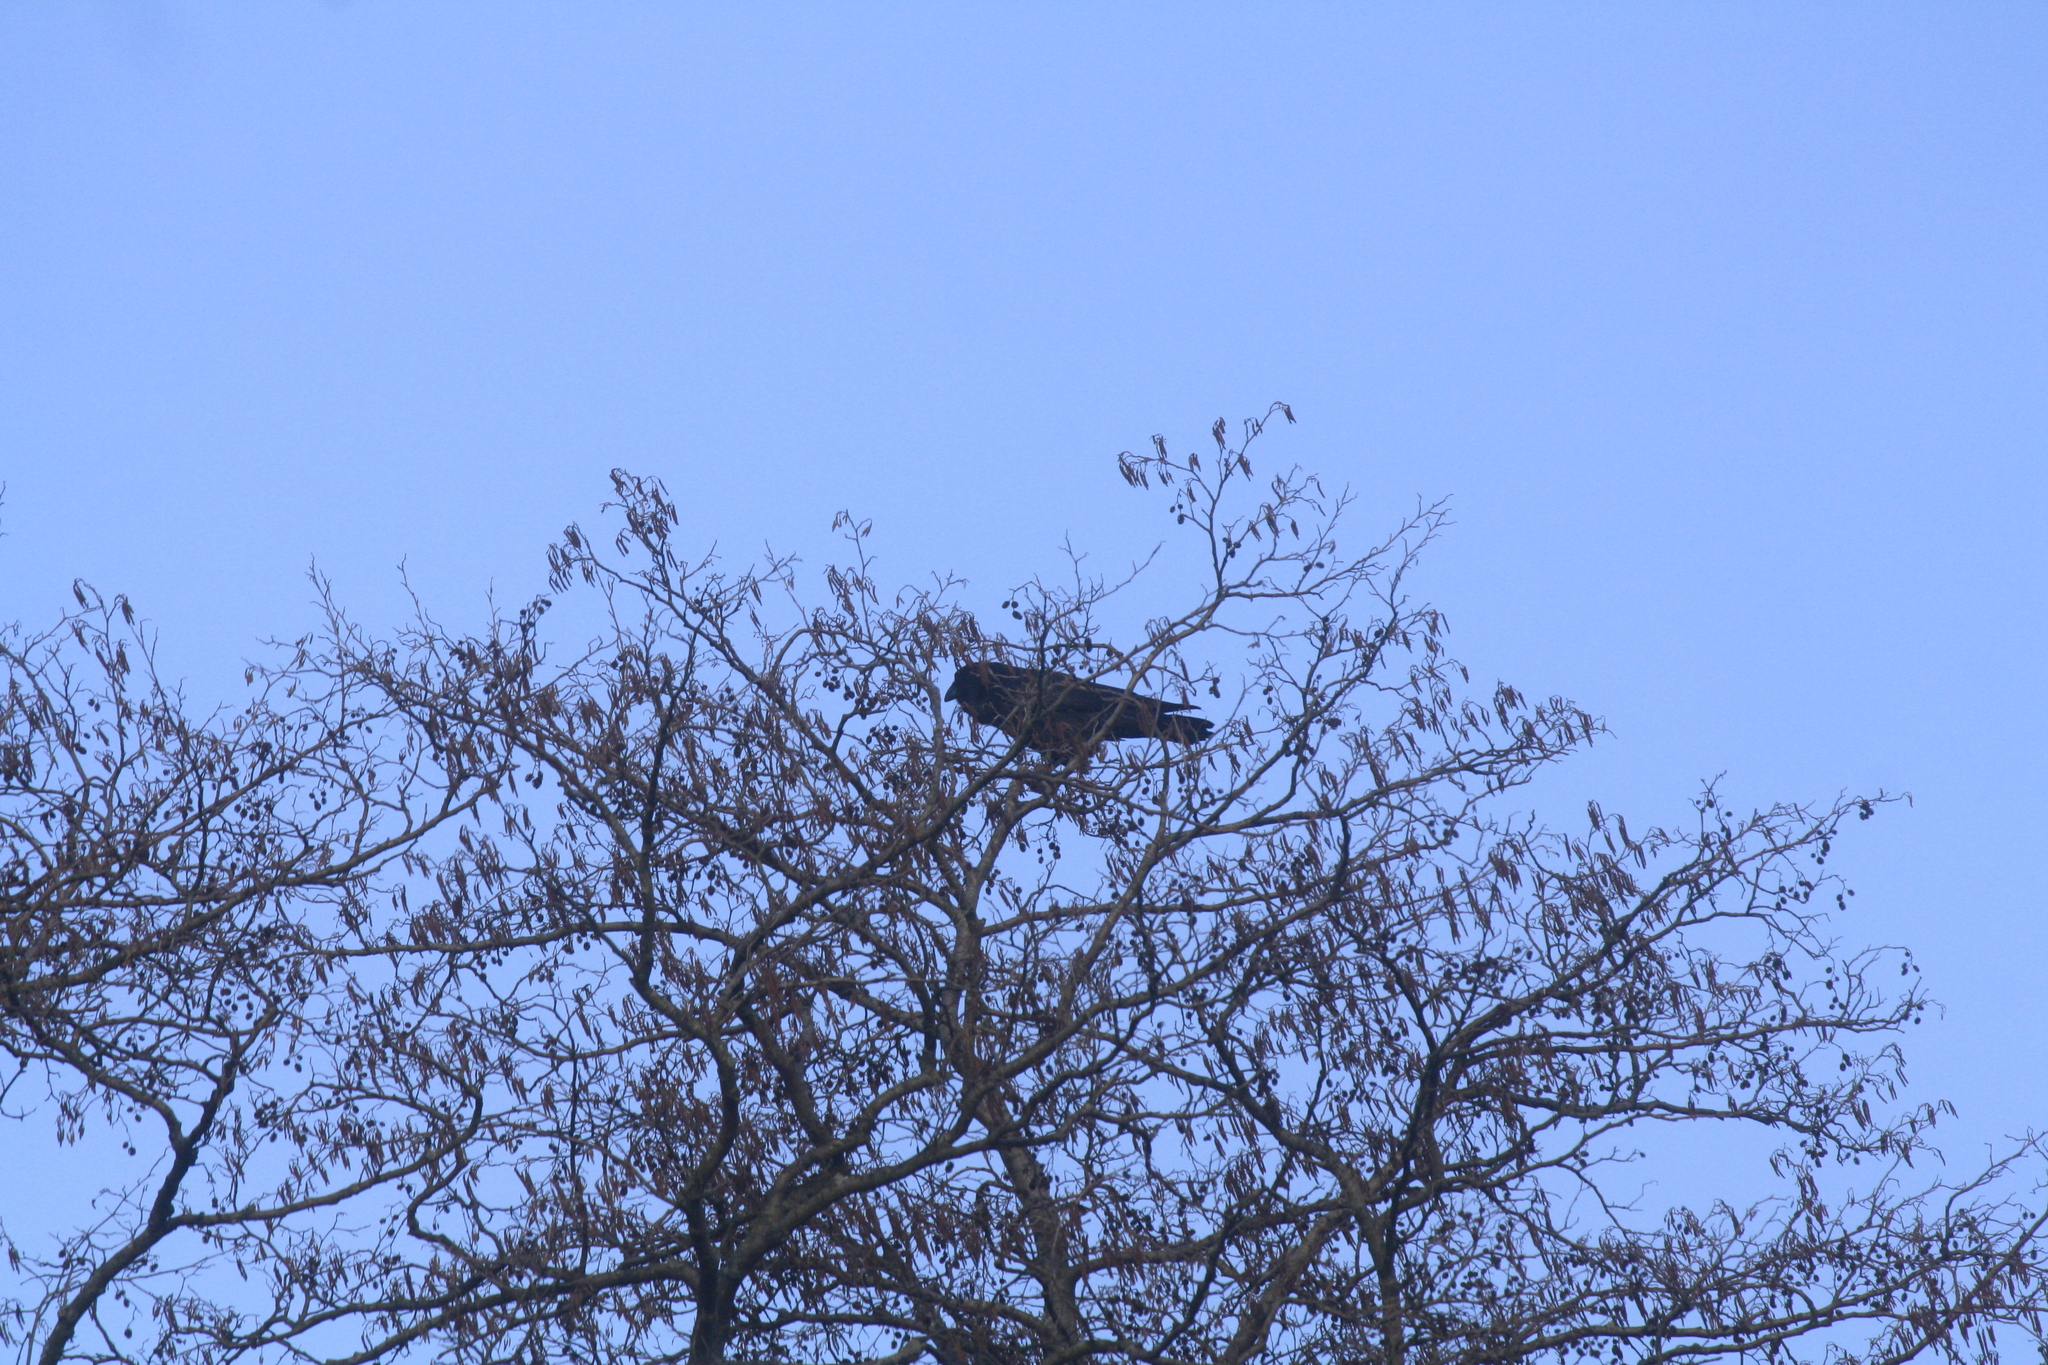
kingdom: Animalia
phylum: Chordata
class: Aves
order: Passeriformes
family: Corvidae
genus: Corvus
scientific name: Corvus corax
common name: Common raven
